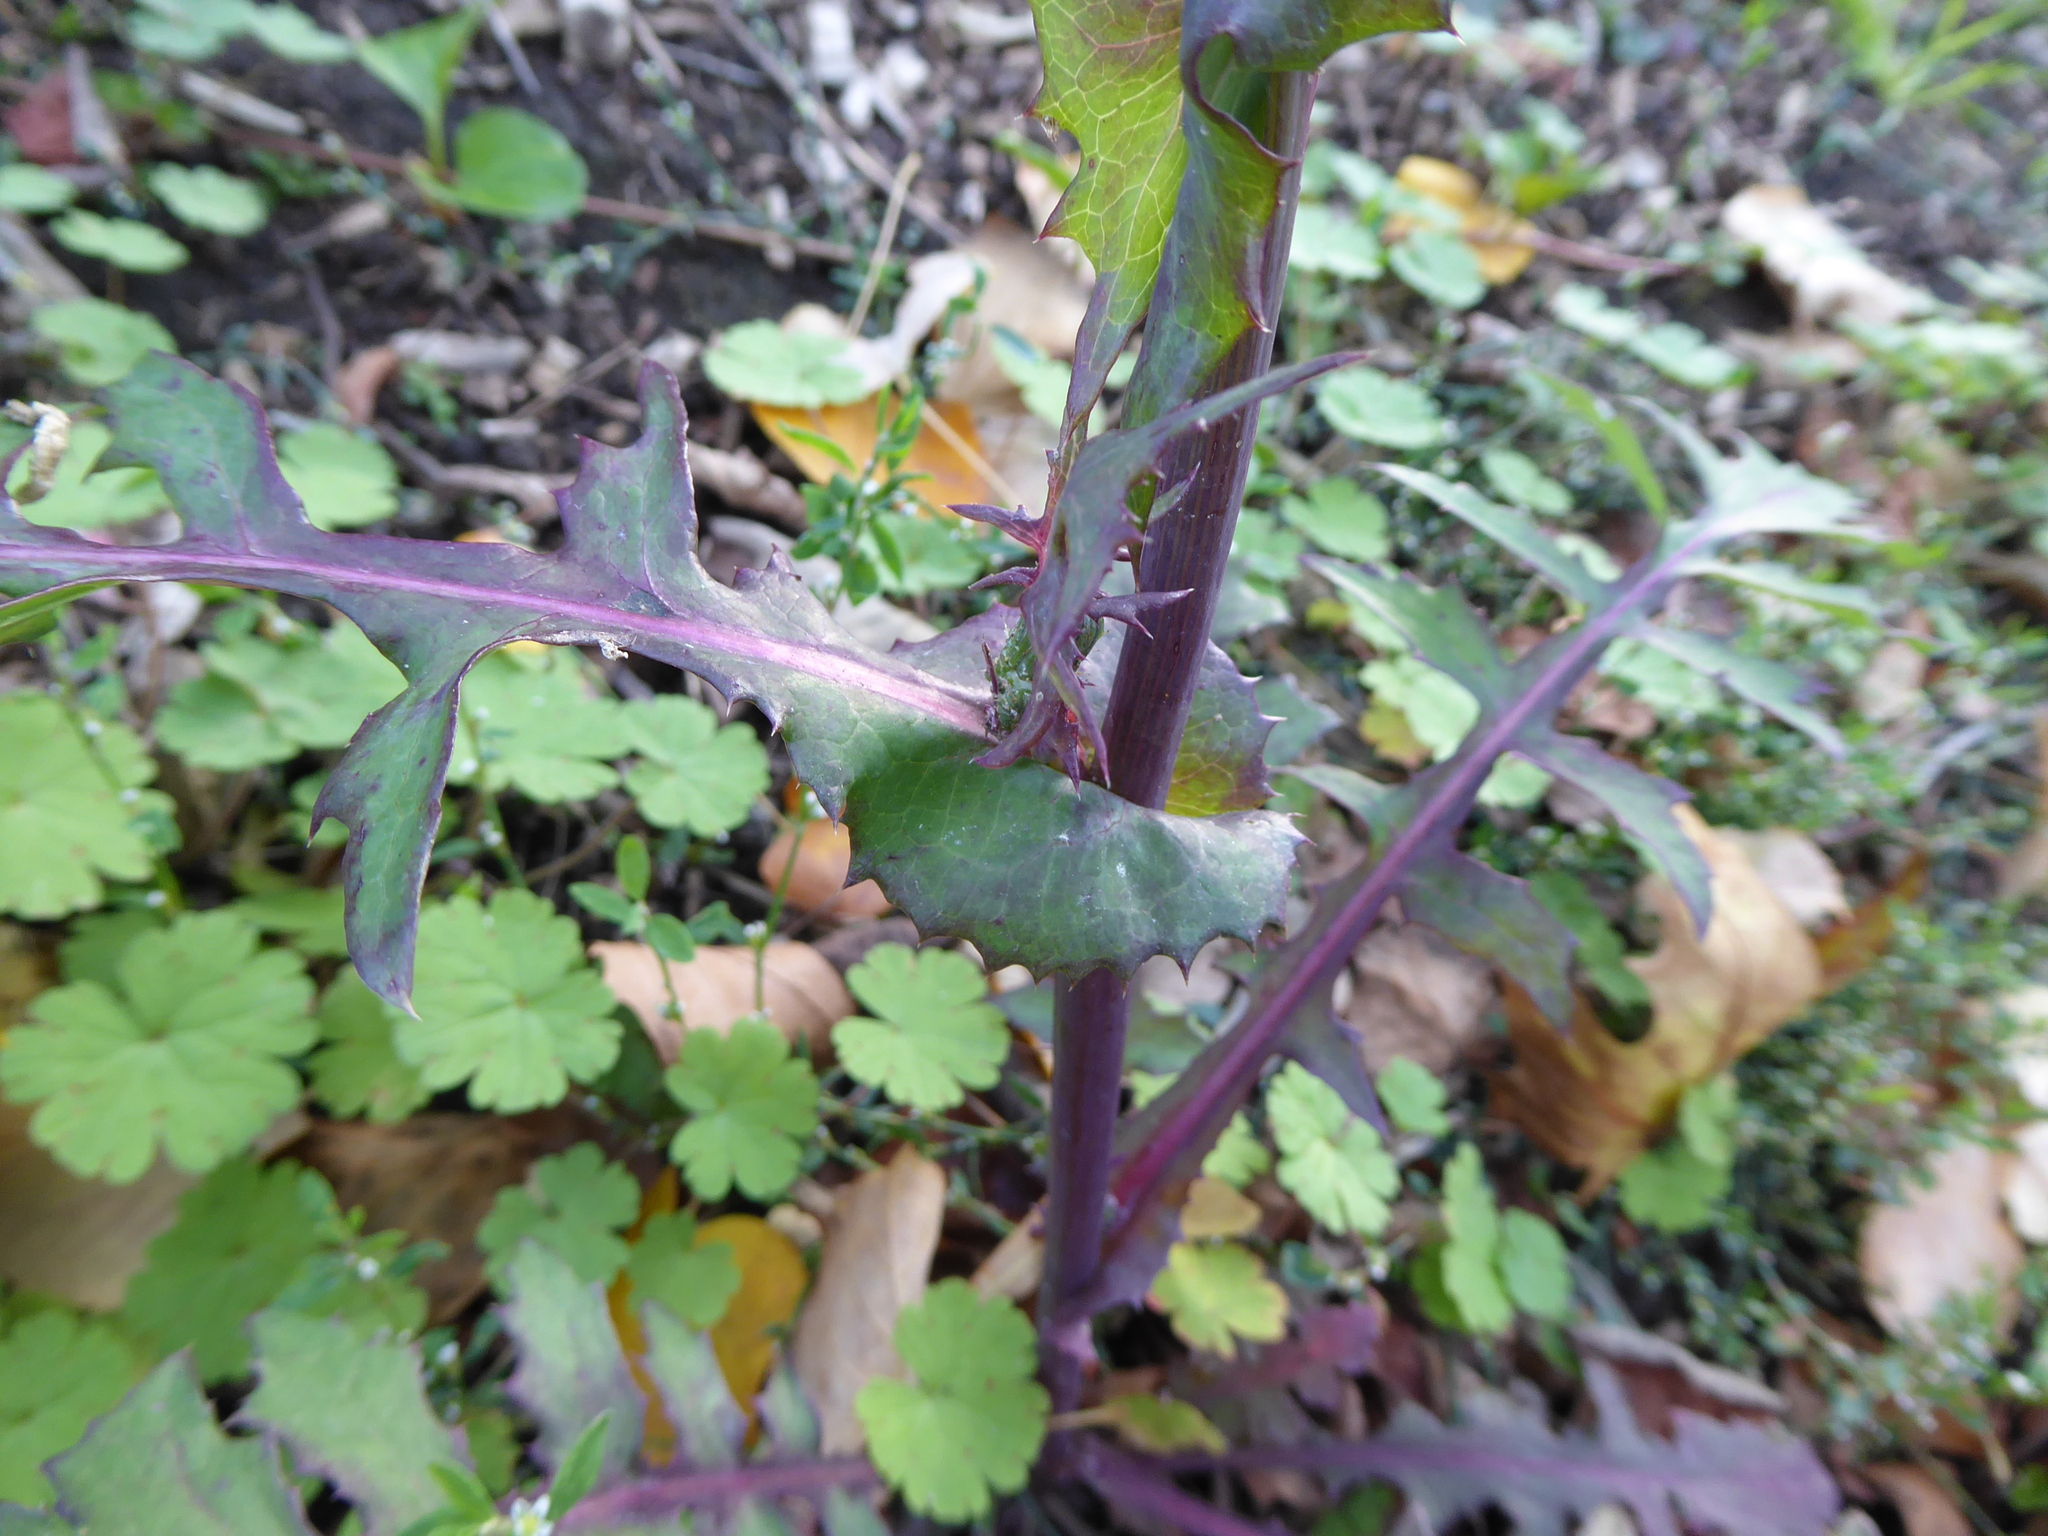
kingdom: Plantae
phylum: Tracheophyta
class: Magnoliopsida
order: Asterales
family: Asteraceae
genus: Sonchus
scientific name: Sonchus oleraceus
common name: Common sowthistle
